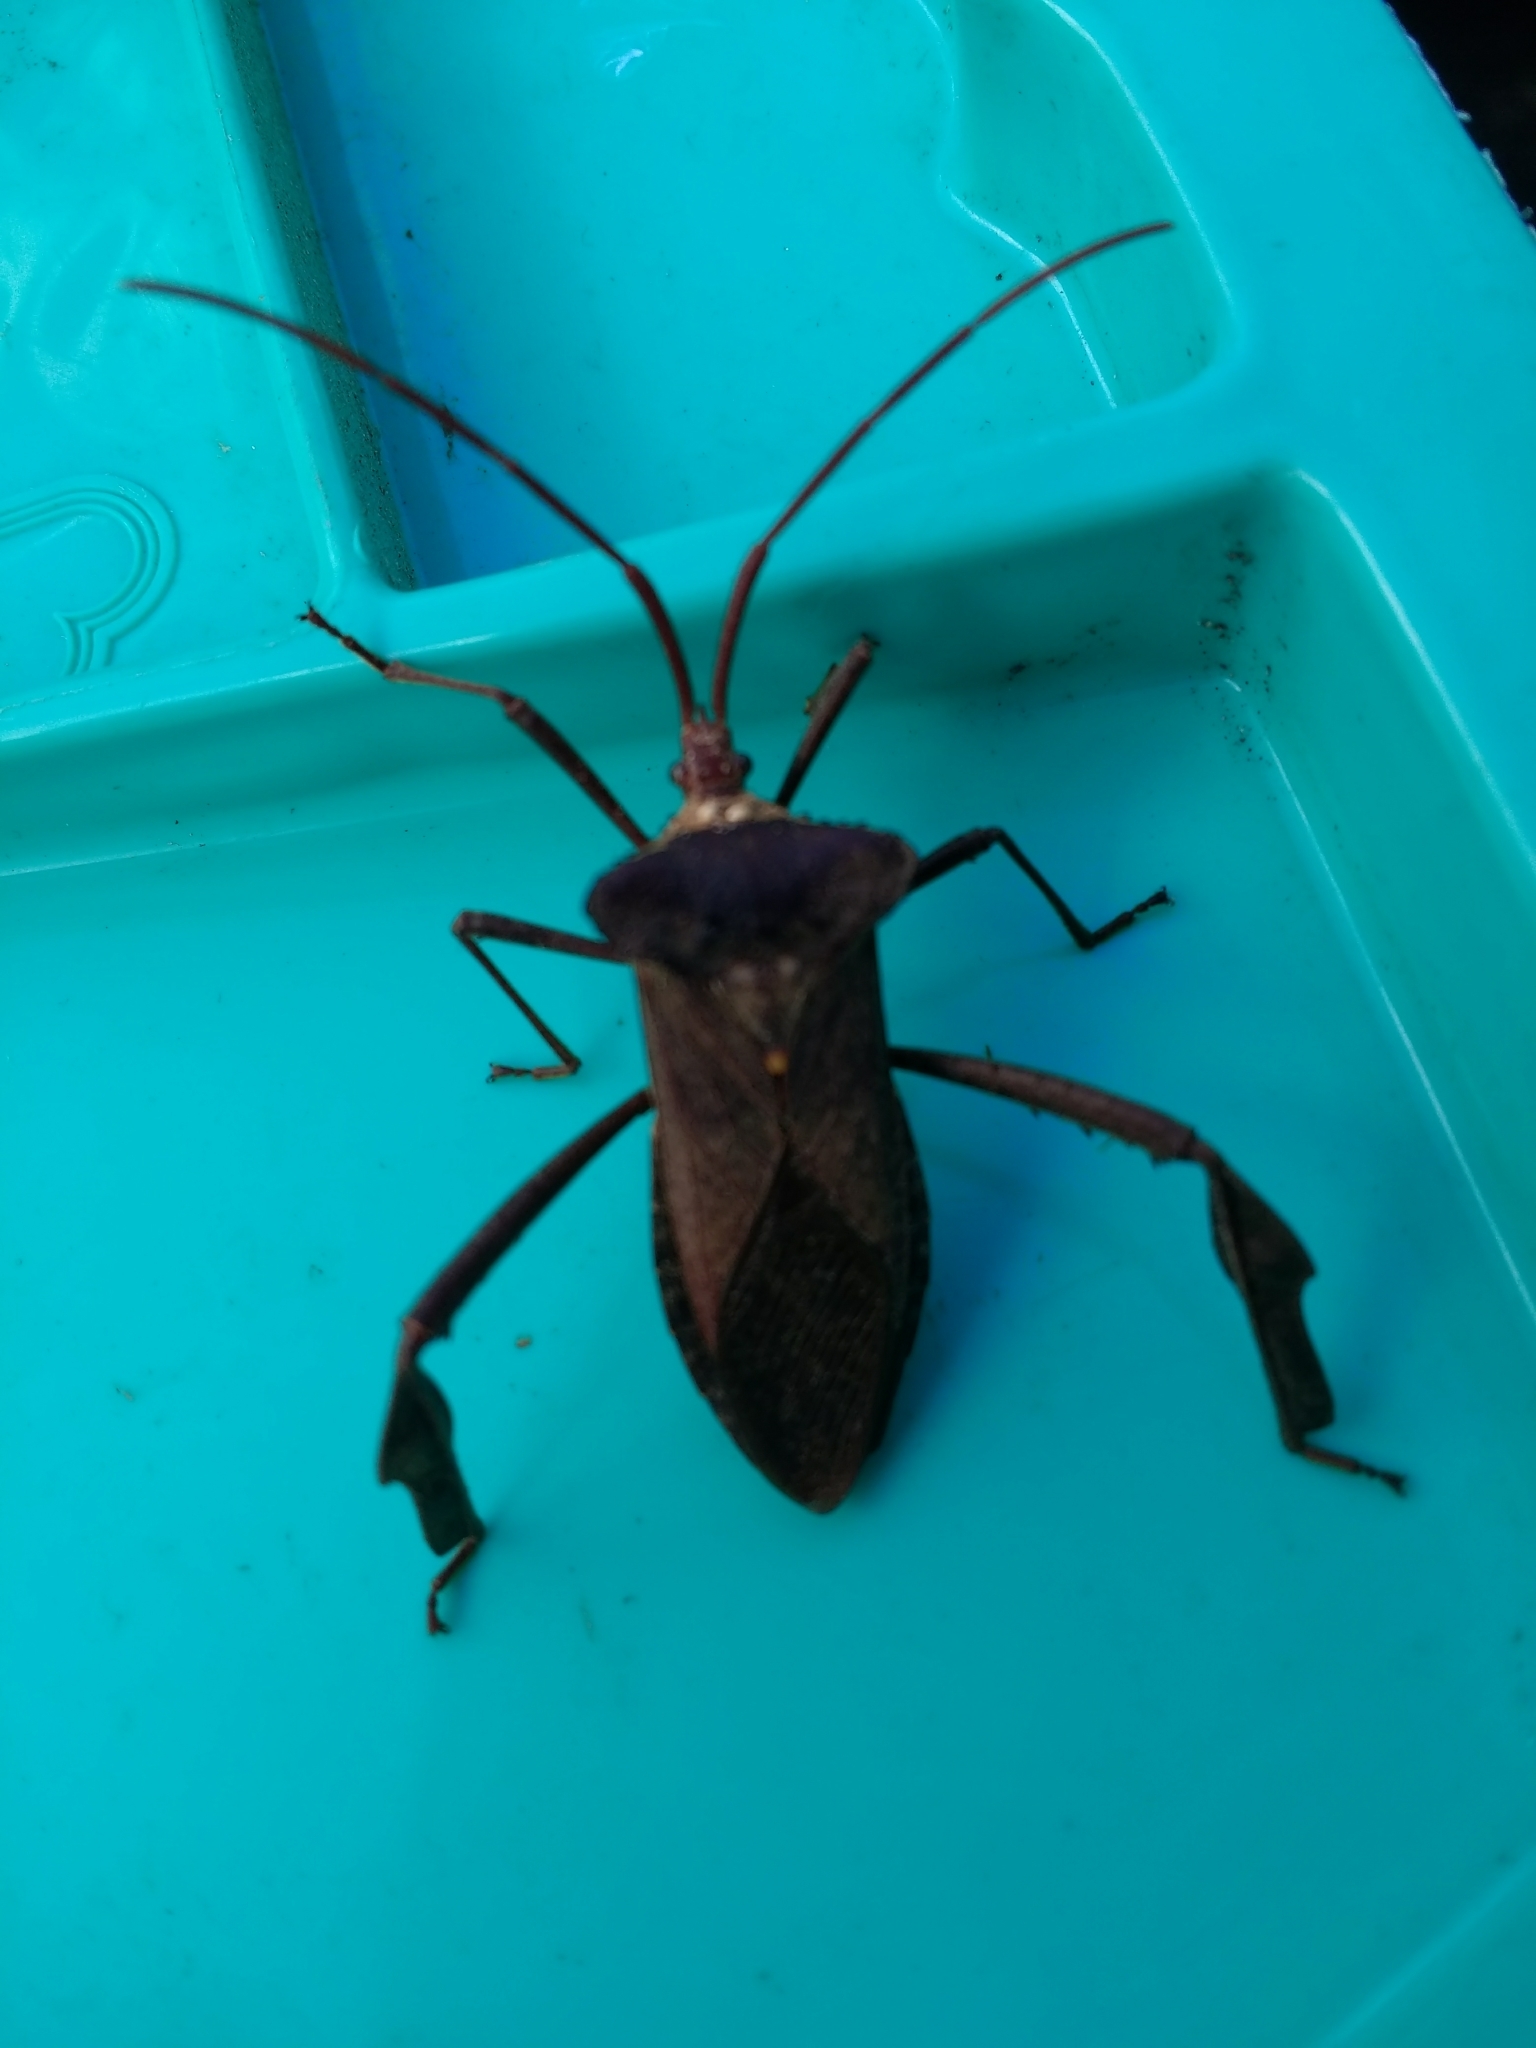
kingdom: Animalia
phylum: Arthropoda
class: Insecta
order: Hemiptera
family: Coreidae
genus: Acanthocephala
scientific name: Acanthocephala declivis
